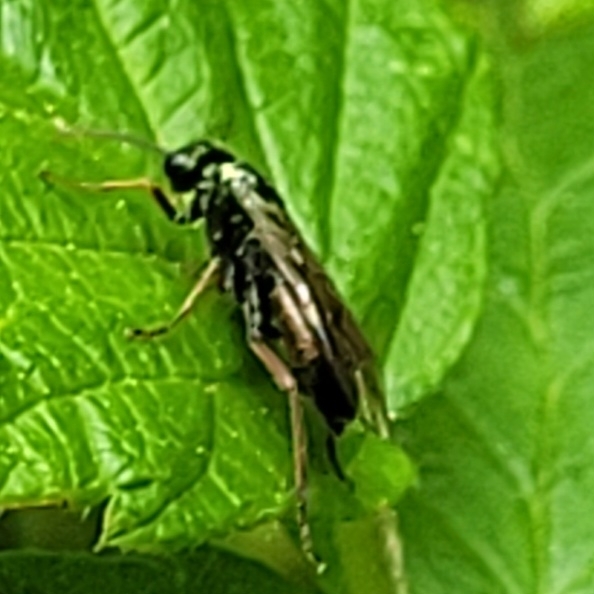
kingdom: Animalia
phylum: Arthropoda
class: Insecta
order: Hymenoptera
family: Tenthredinidae
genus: Aglaostigma
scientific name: Aglaostigma aucupariae
